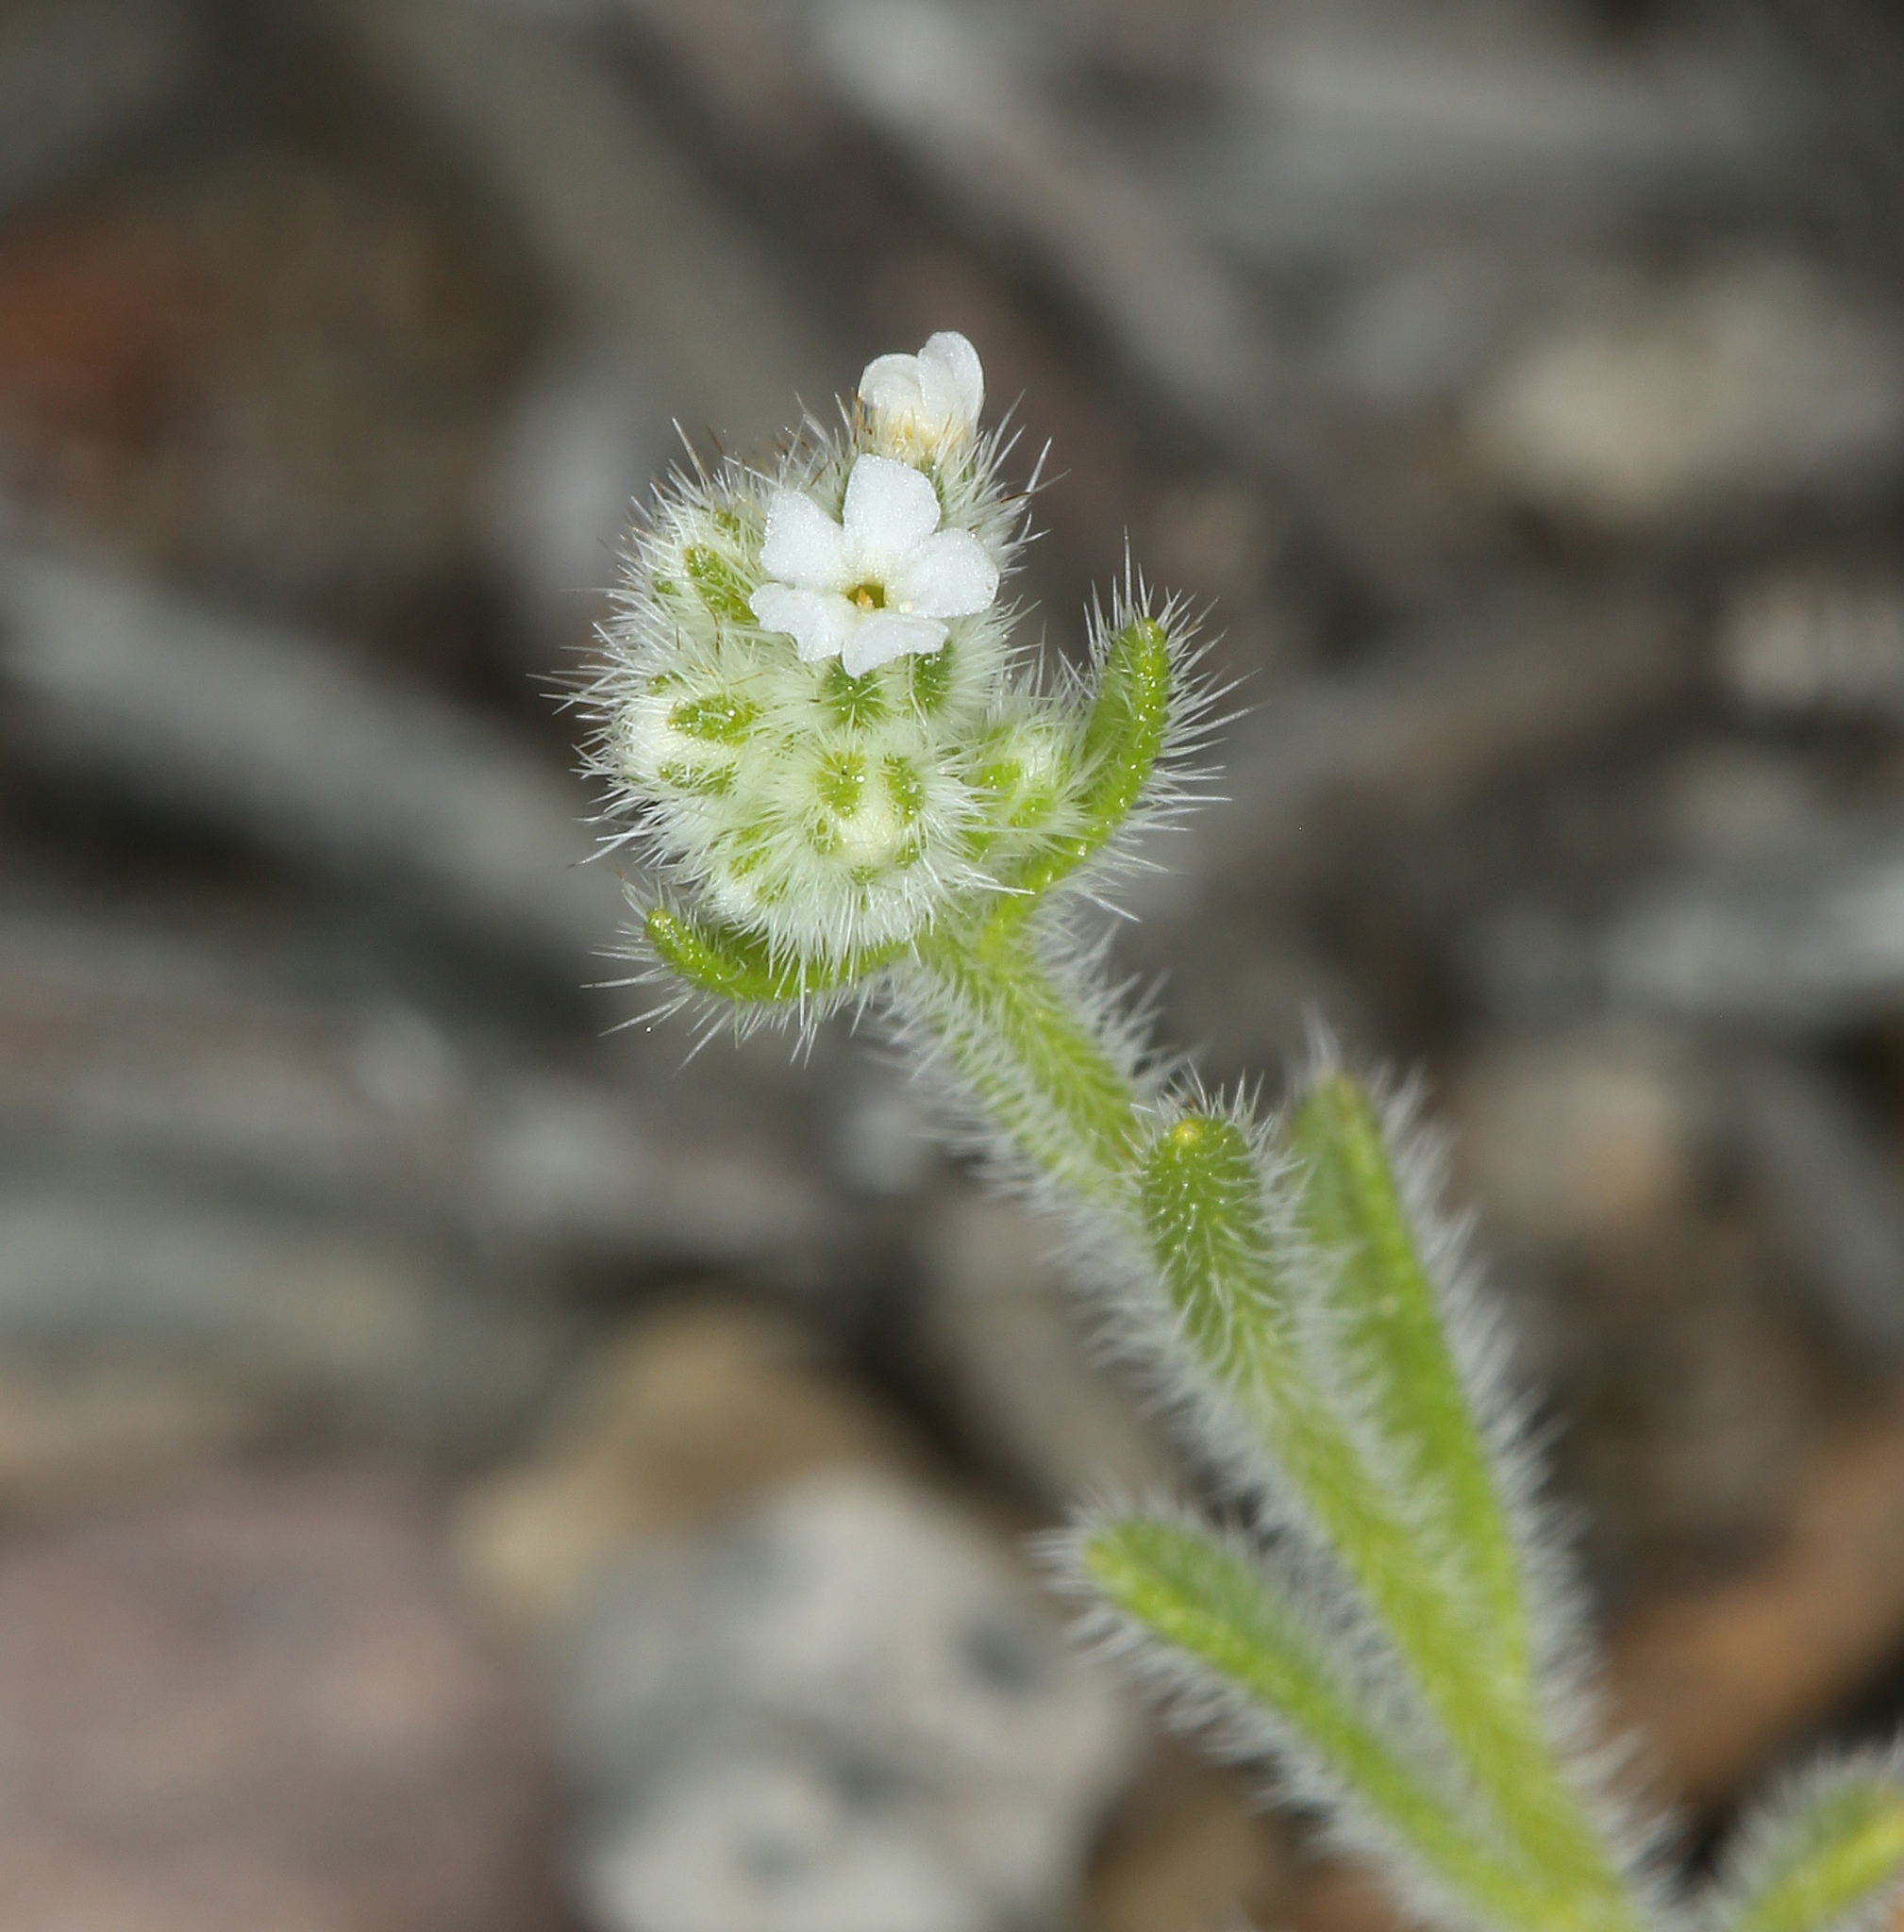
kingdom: Plantae
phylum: Tracheophyta
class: Magnoliopsida
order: Boraginales
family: Boraginaceae
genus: Cryptantha
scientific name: Cryptantha gracilis
